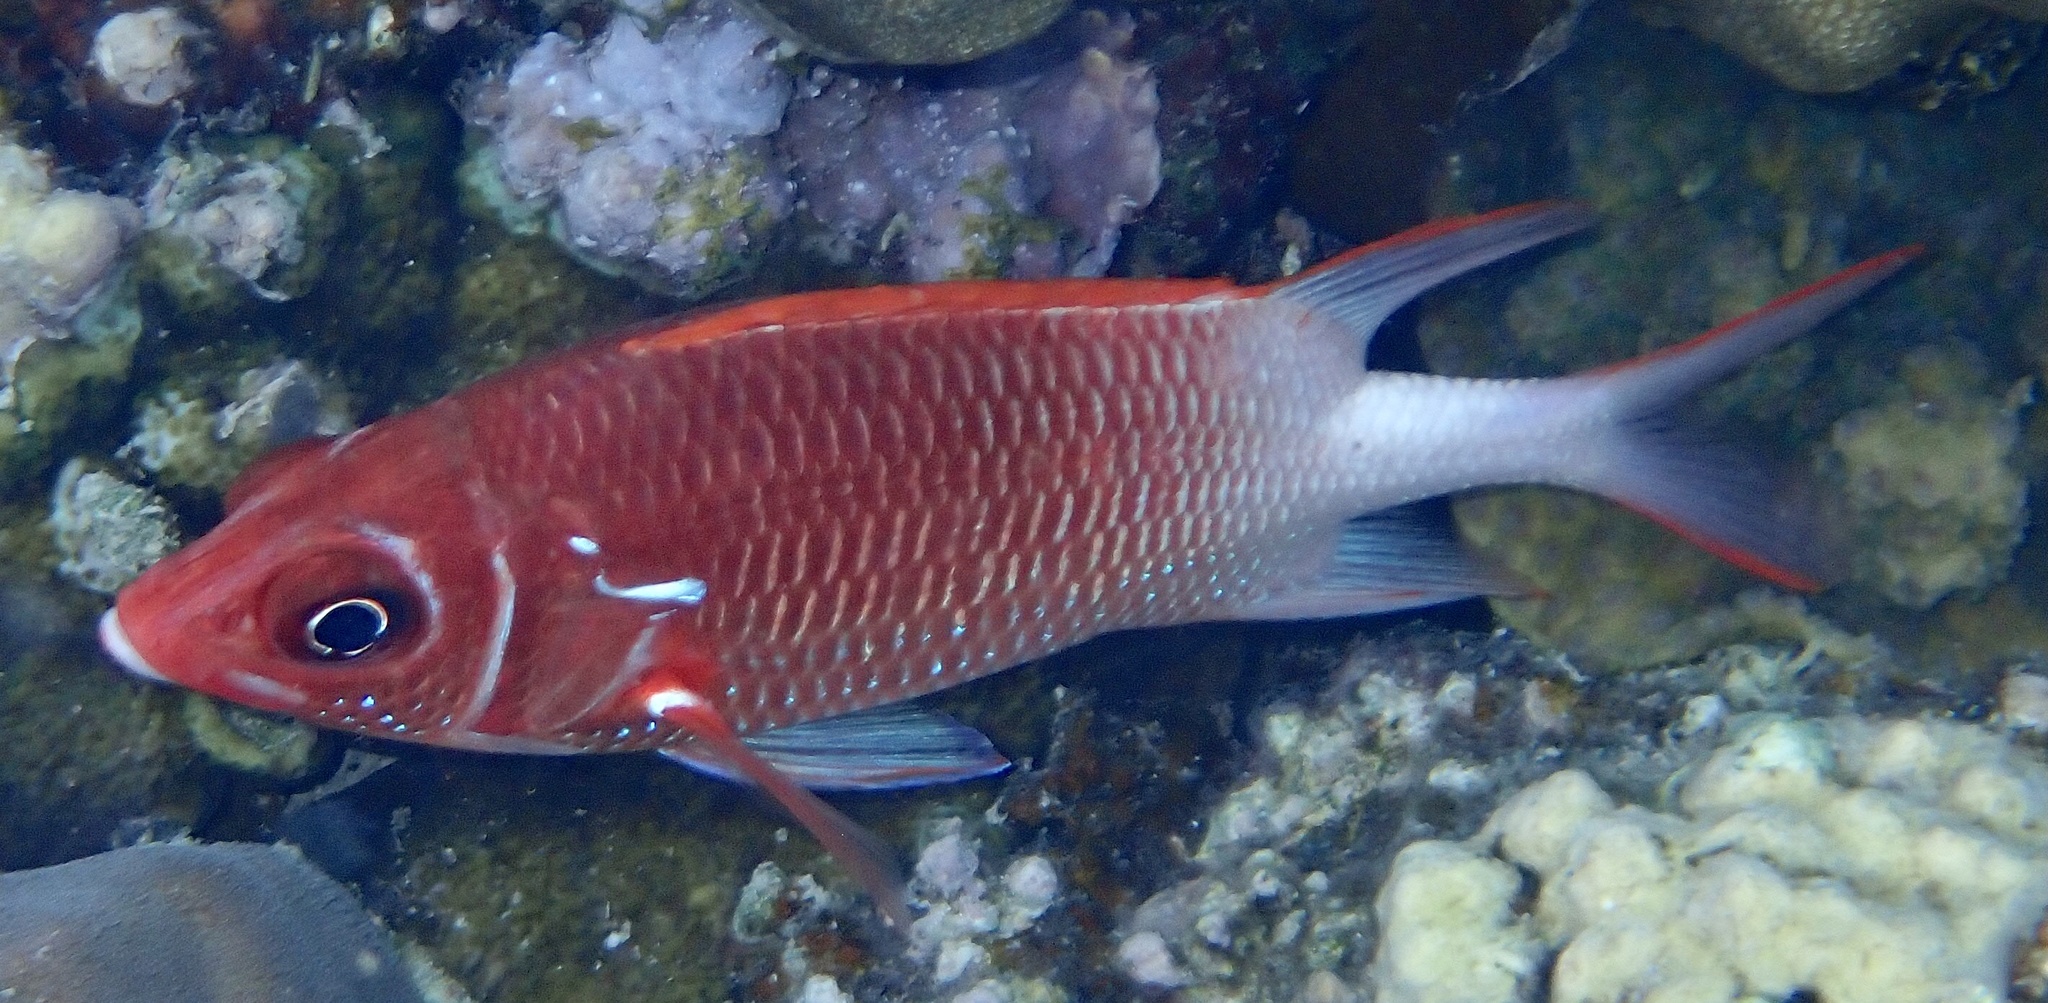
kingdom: Animalia
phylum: Chordata
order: Beryciformes
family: Holocentridae
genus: Sargocentron
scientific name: Sargocentron caudimaculatum
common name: Fanfin soldier
